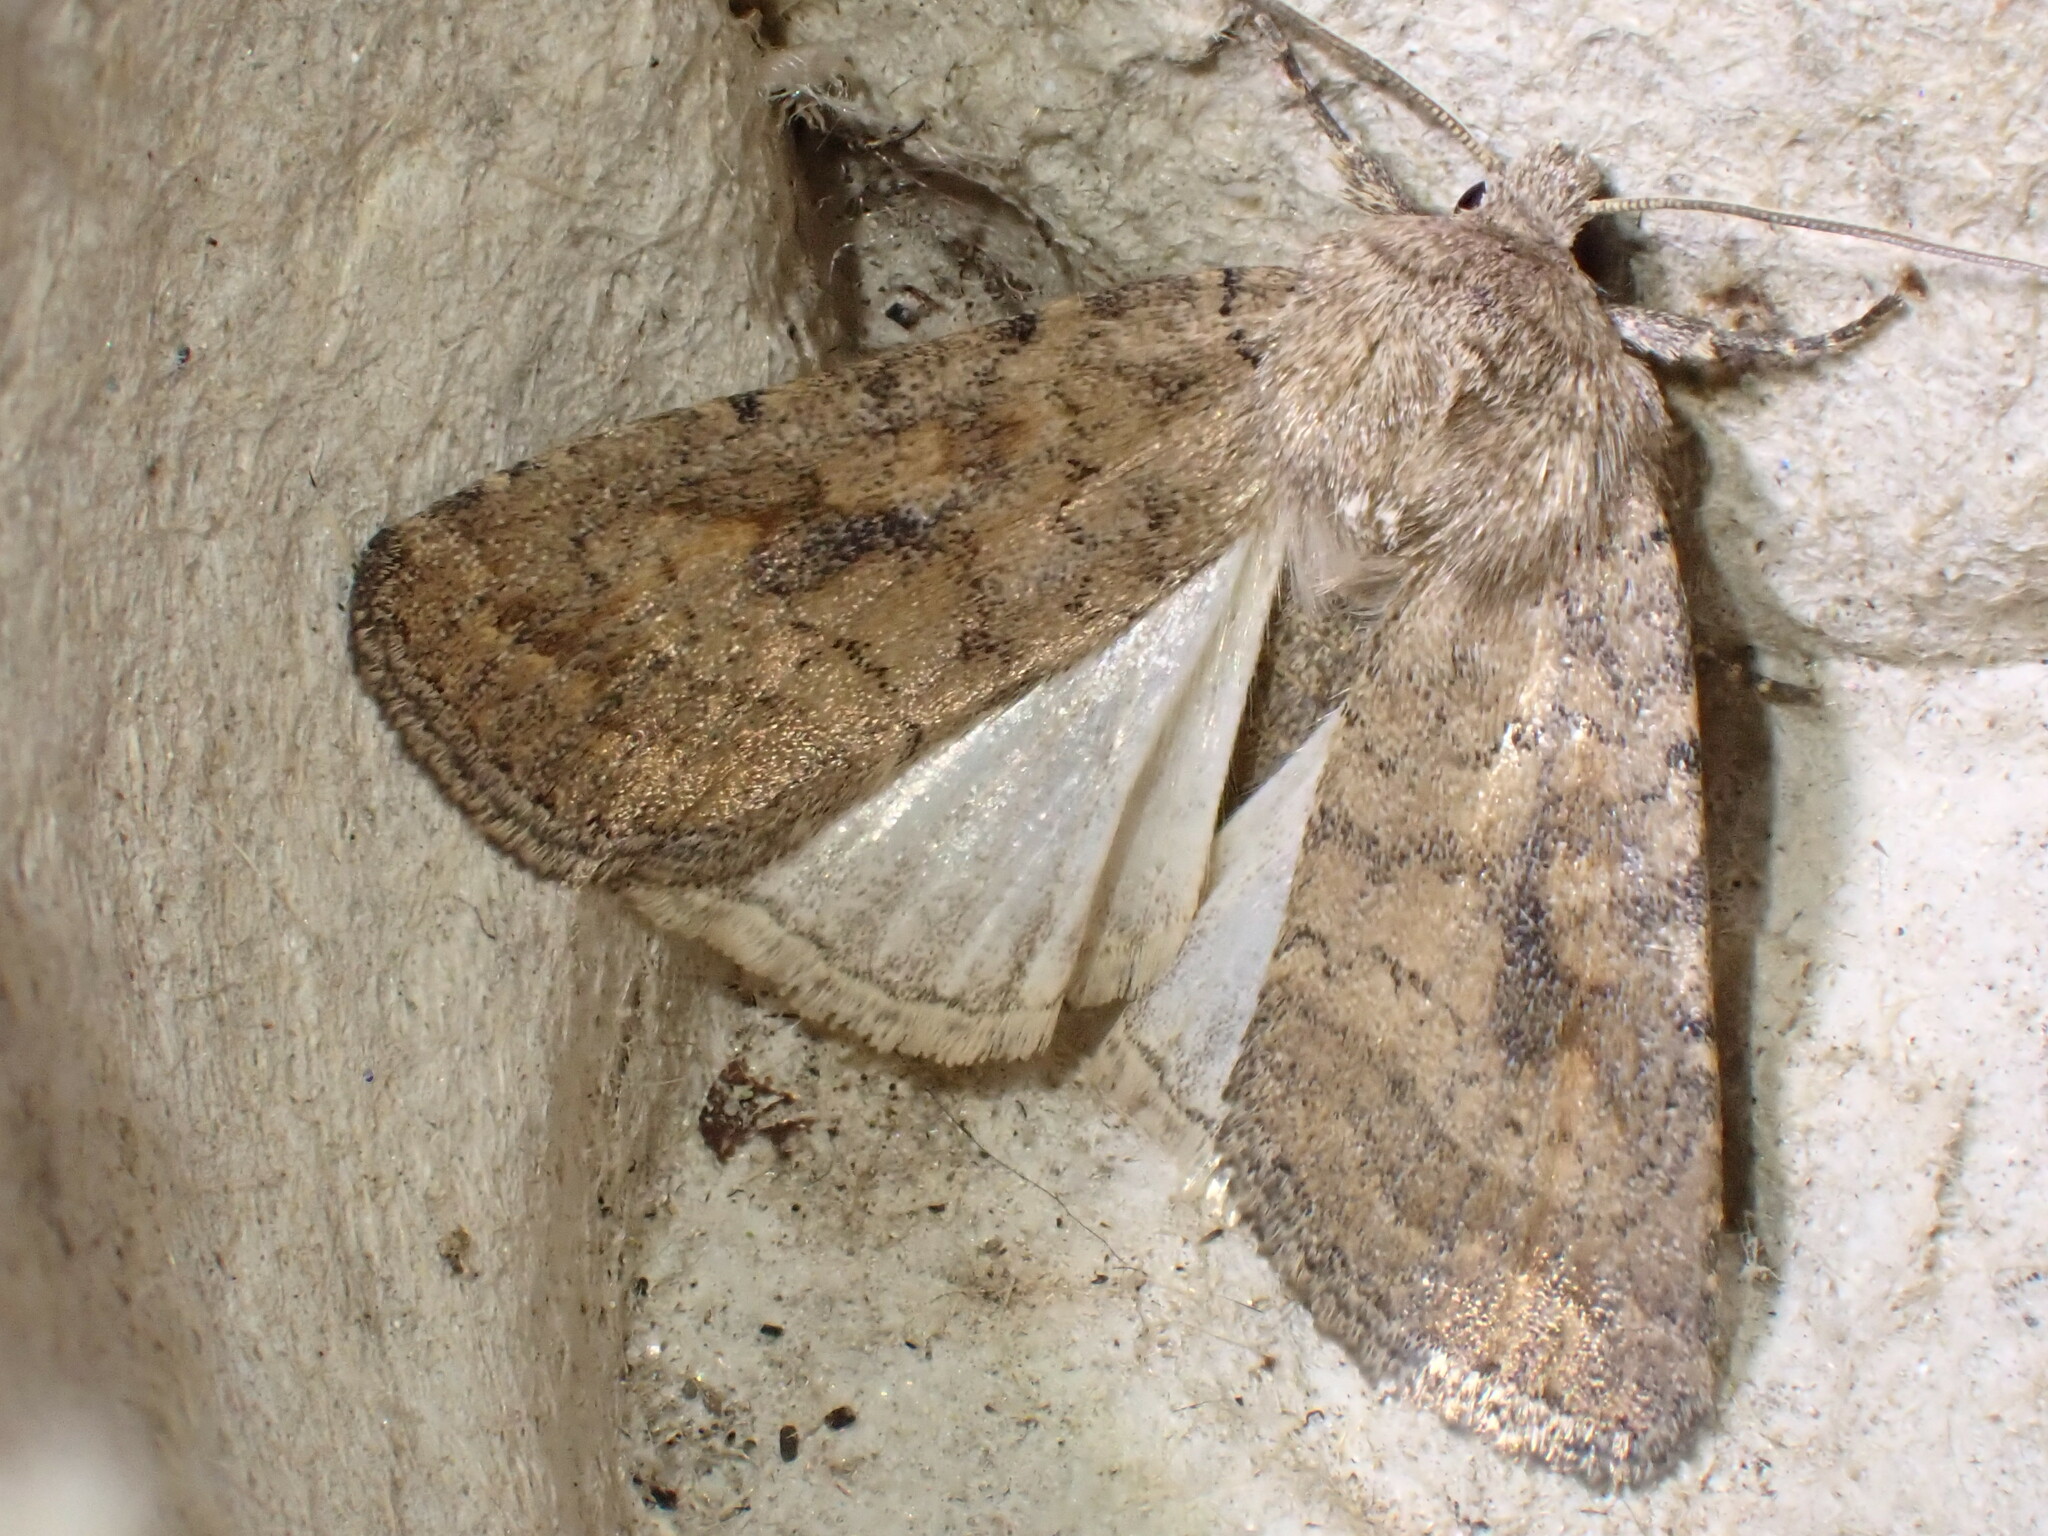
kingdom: Animalia
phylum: Arthropoda
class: Insecta
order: Lepidoptera
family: Noctuidae
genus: Caradrina
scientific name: Caradrina morpheus
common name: Mottled rustic
